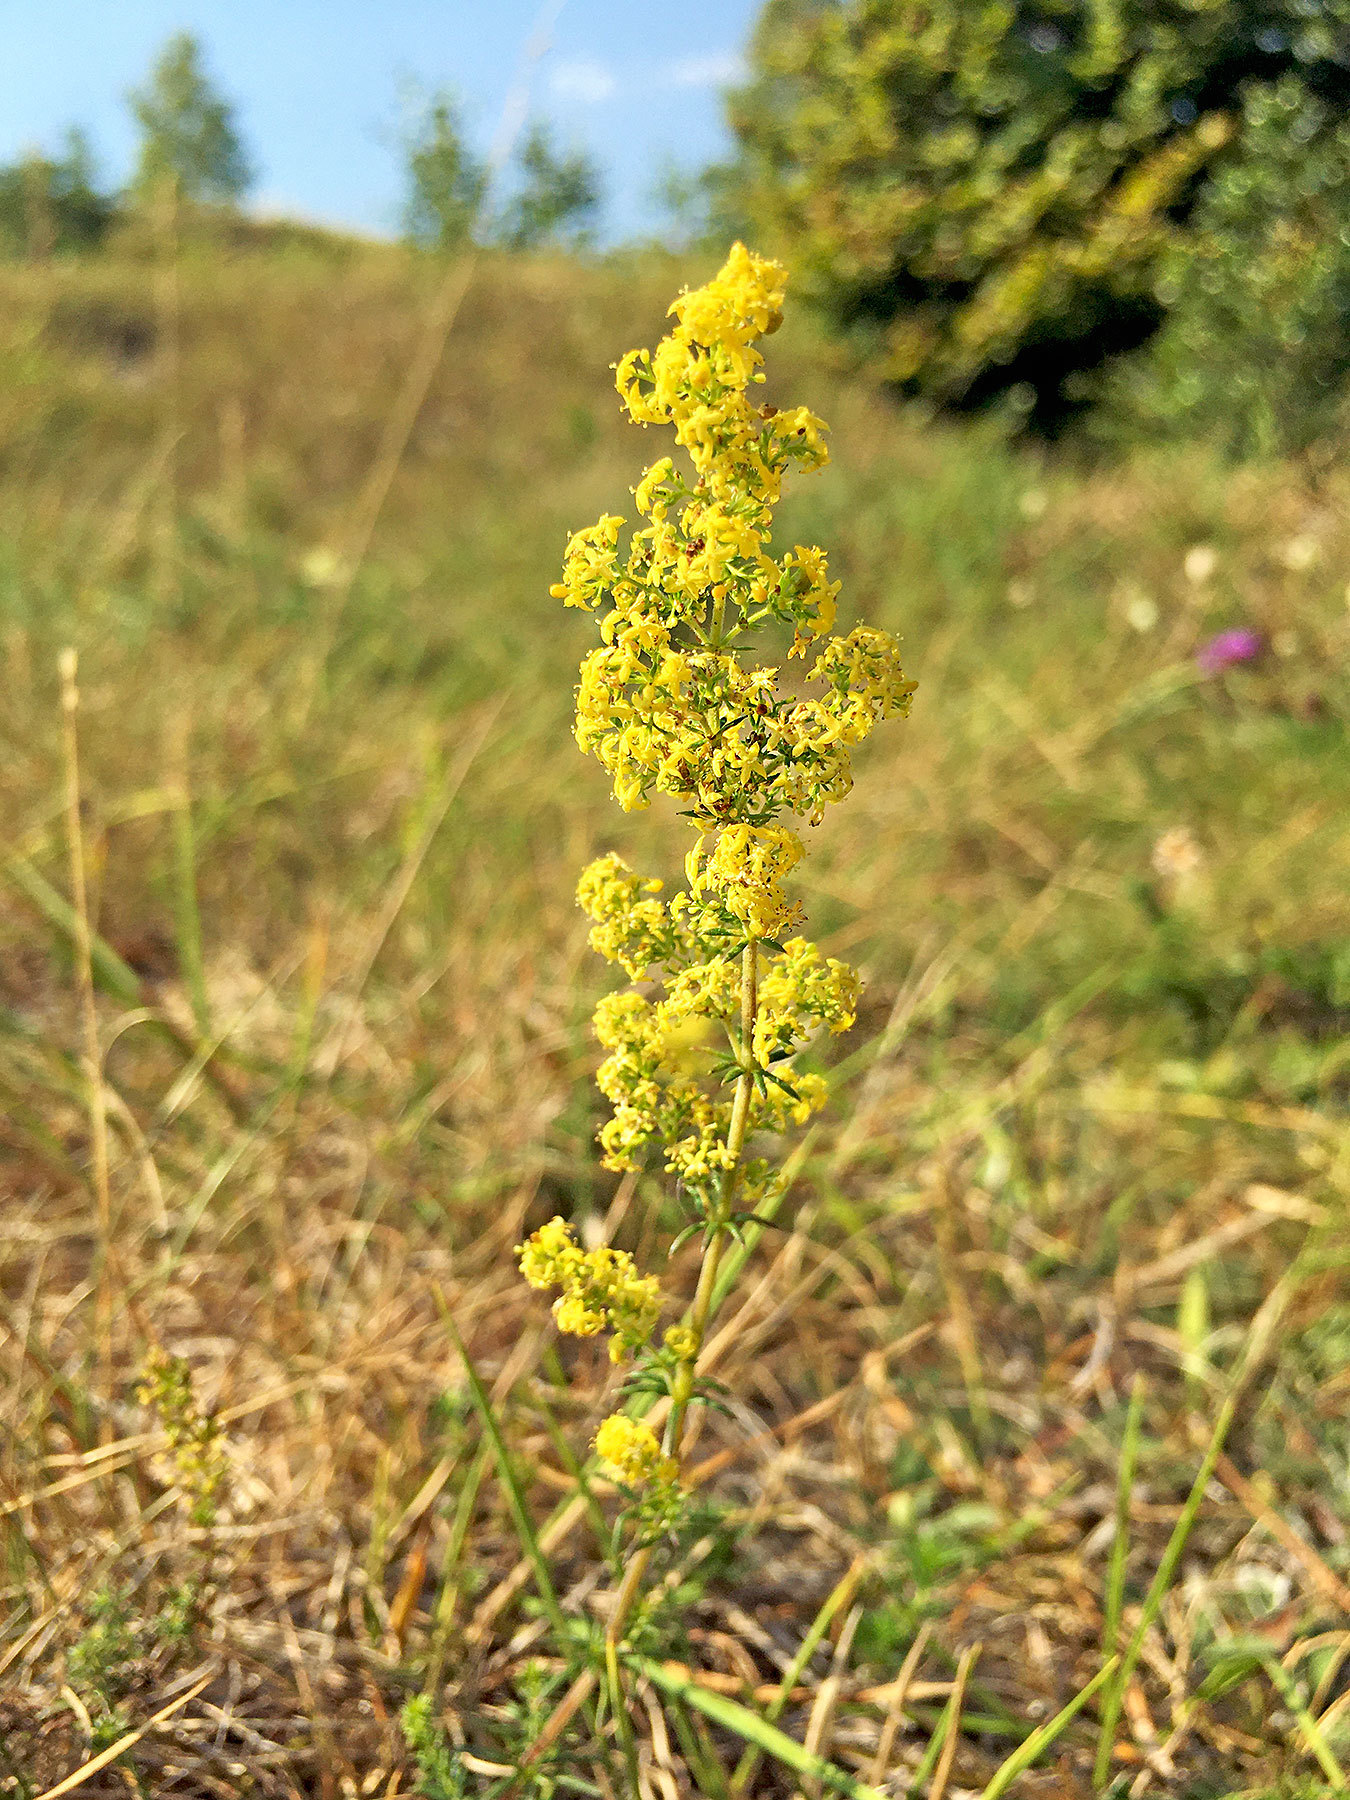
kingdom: Plantae
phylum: Tracheophyta
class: Magnoliopsida
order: Gentianales
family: Rubiaceae
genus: Galium
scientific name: Galium verum
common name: Lady's bedstraw
